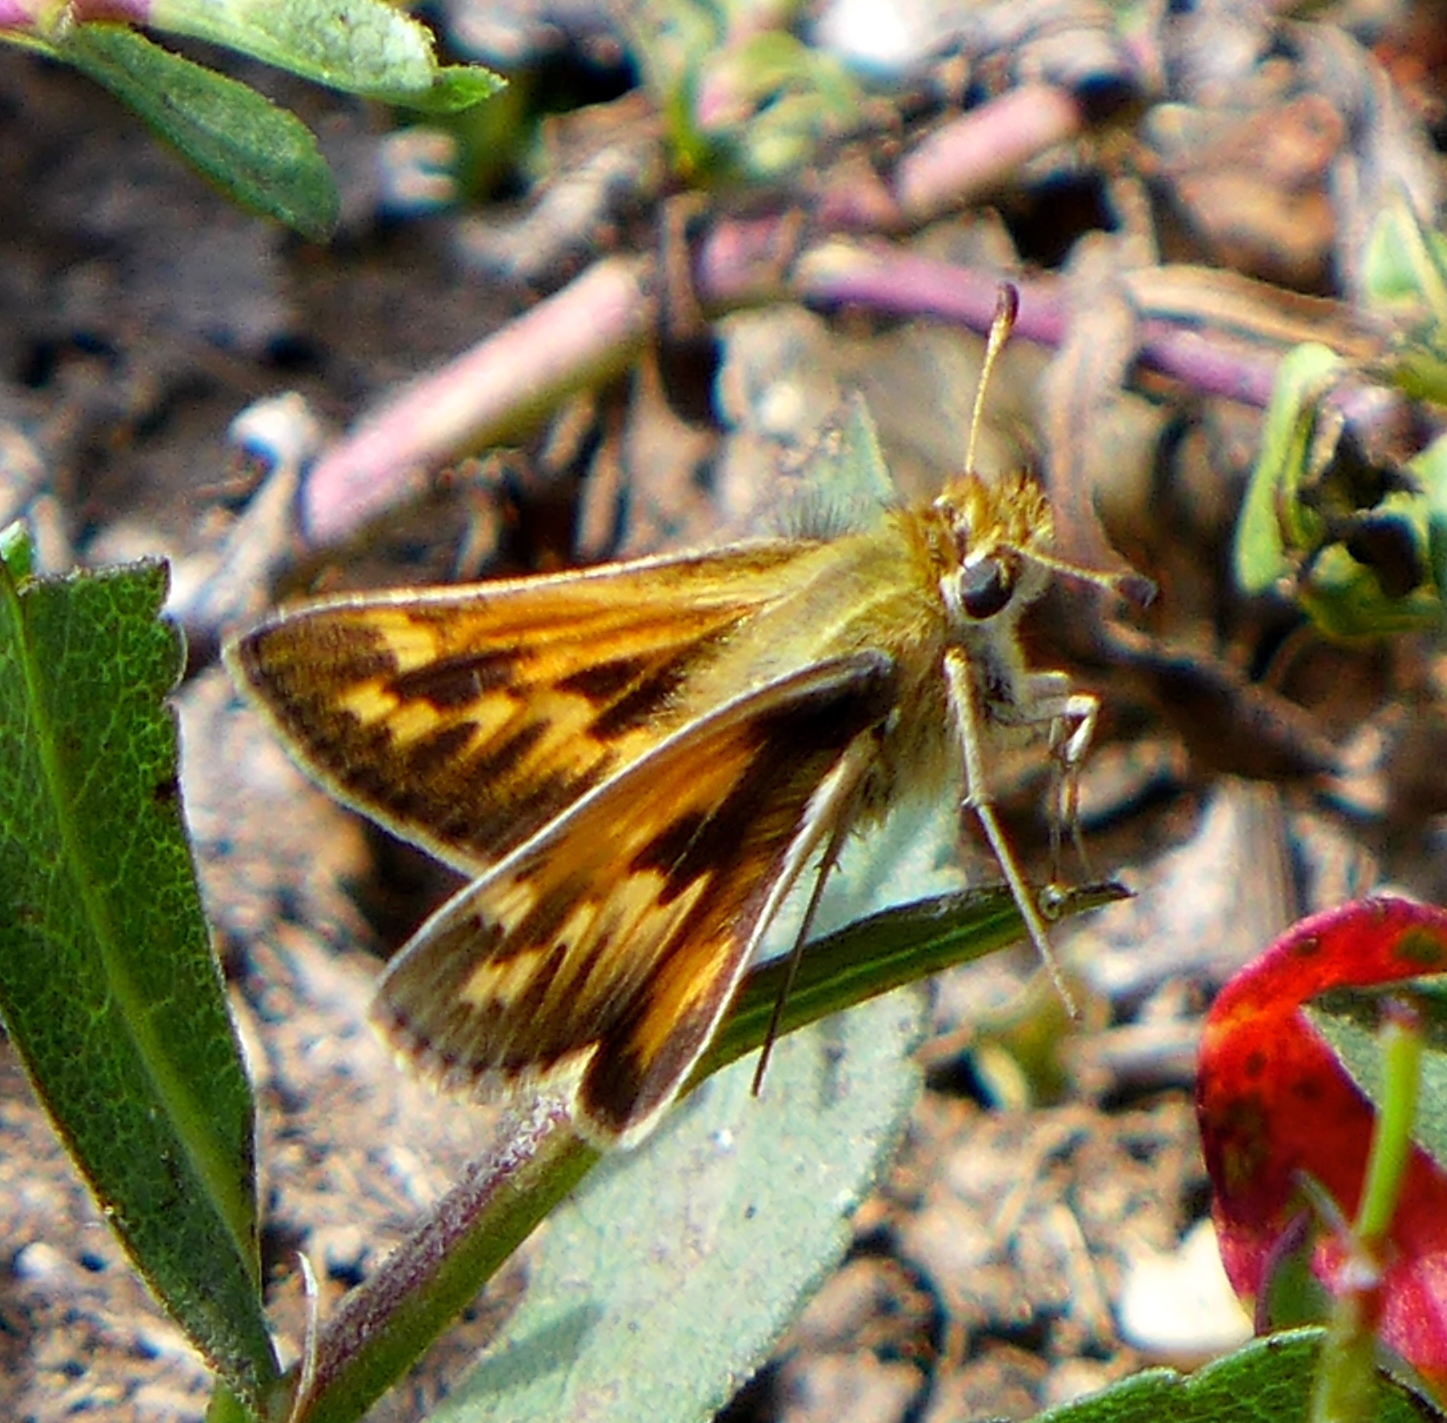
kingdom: Animalia
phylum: Arthropoda
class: Insecta
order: Lepidoptera
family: Hesperiidae
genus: Polites
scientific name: Polites sabuleti
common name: Sandhill skipper
